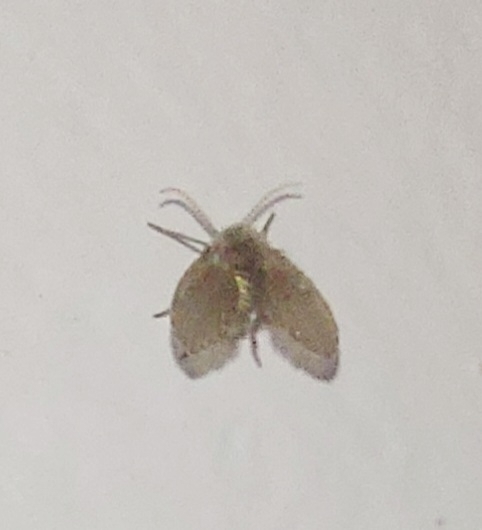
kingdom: Animalia
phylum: Arthropoda
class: Insecta
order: Diptera
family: Psychodidae
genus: Clogmia
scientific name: Clogmia albipunctatus
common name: White-spotted moth fly
